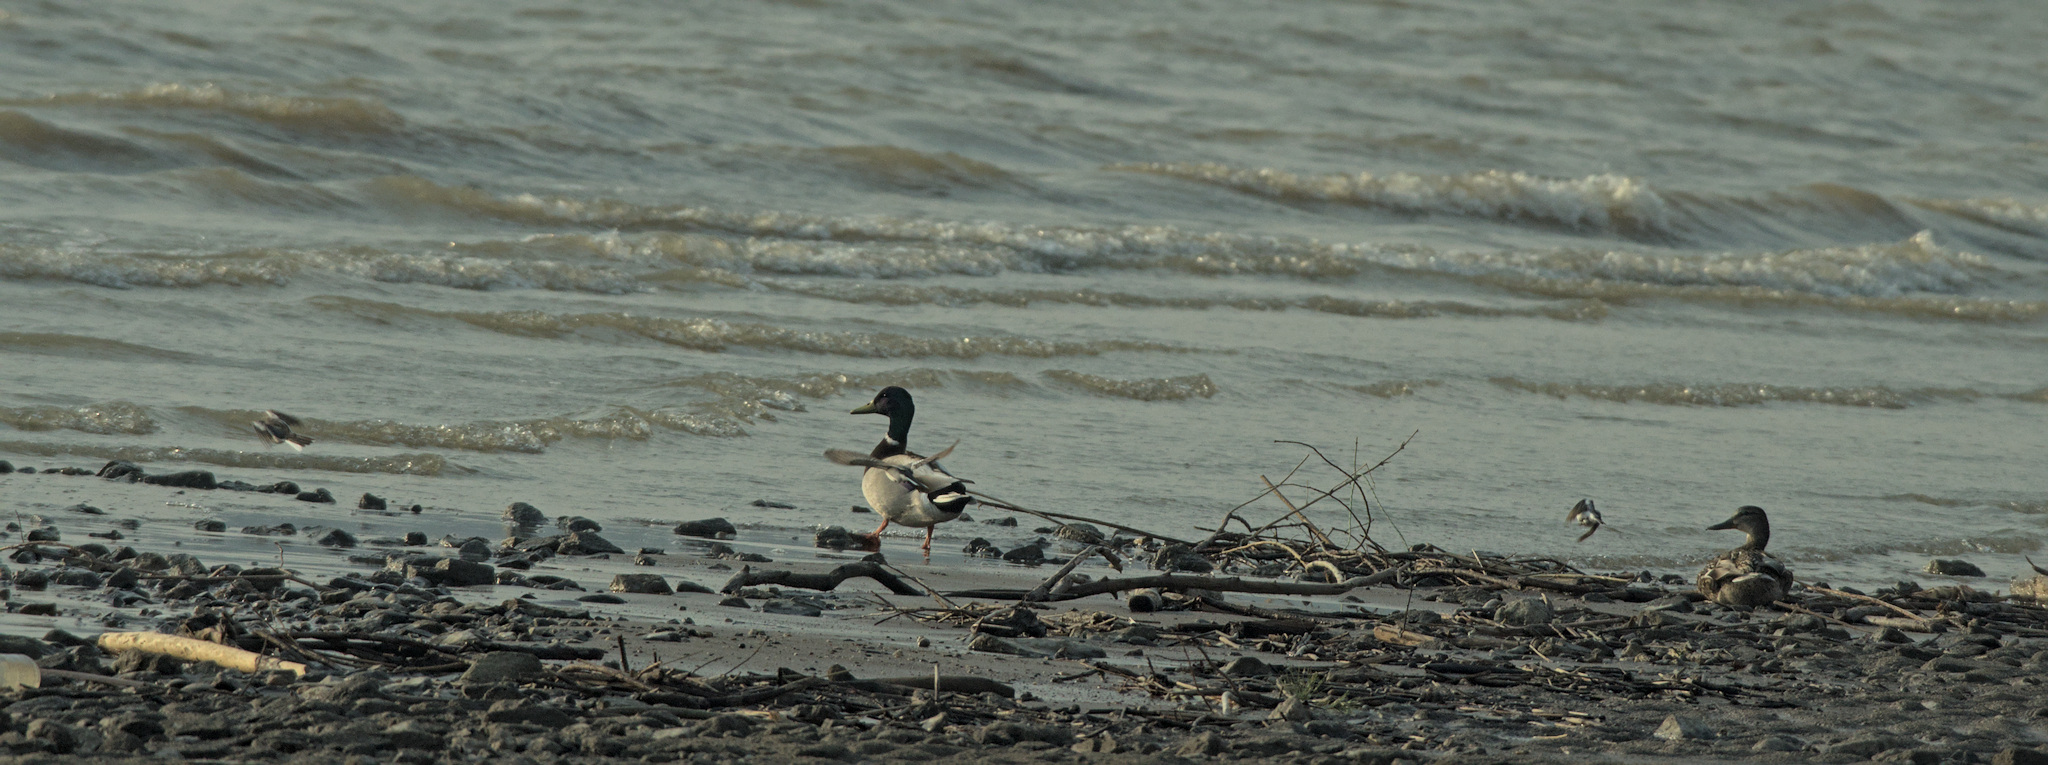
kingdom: Animalia
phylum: Chordata
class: Aves
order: Anseriformes
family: Anatidae
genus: Anas
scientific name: Anas platyrhynchos
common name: Mallard
